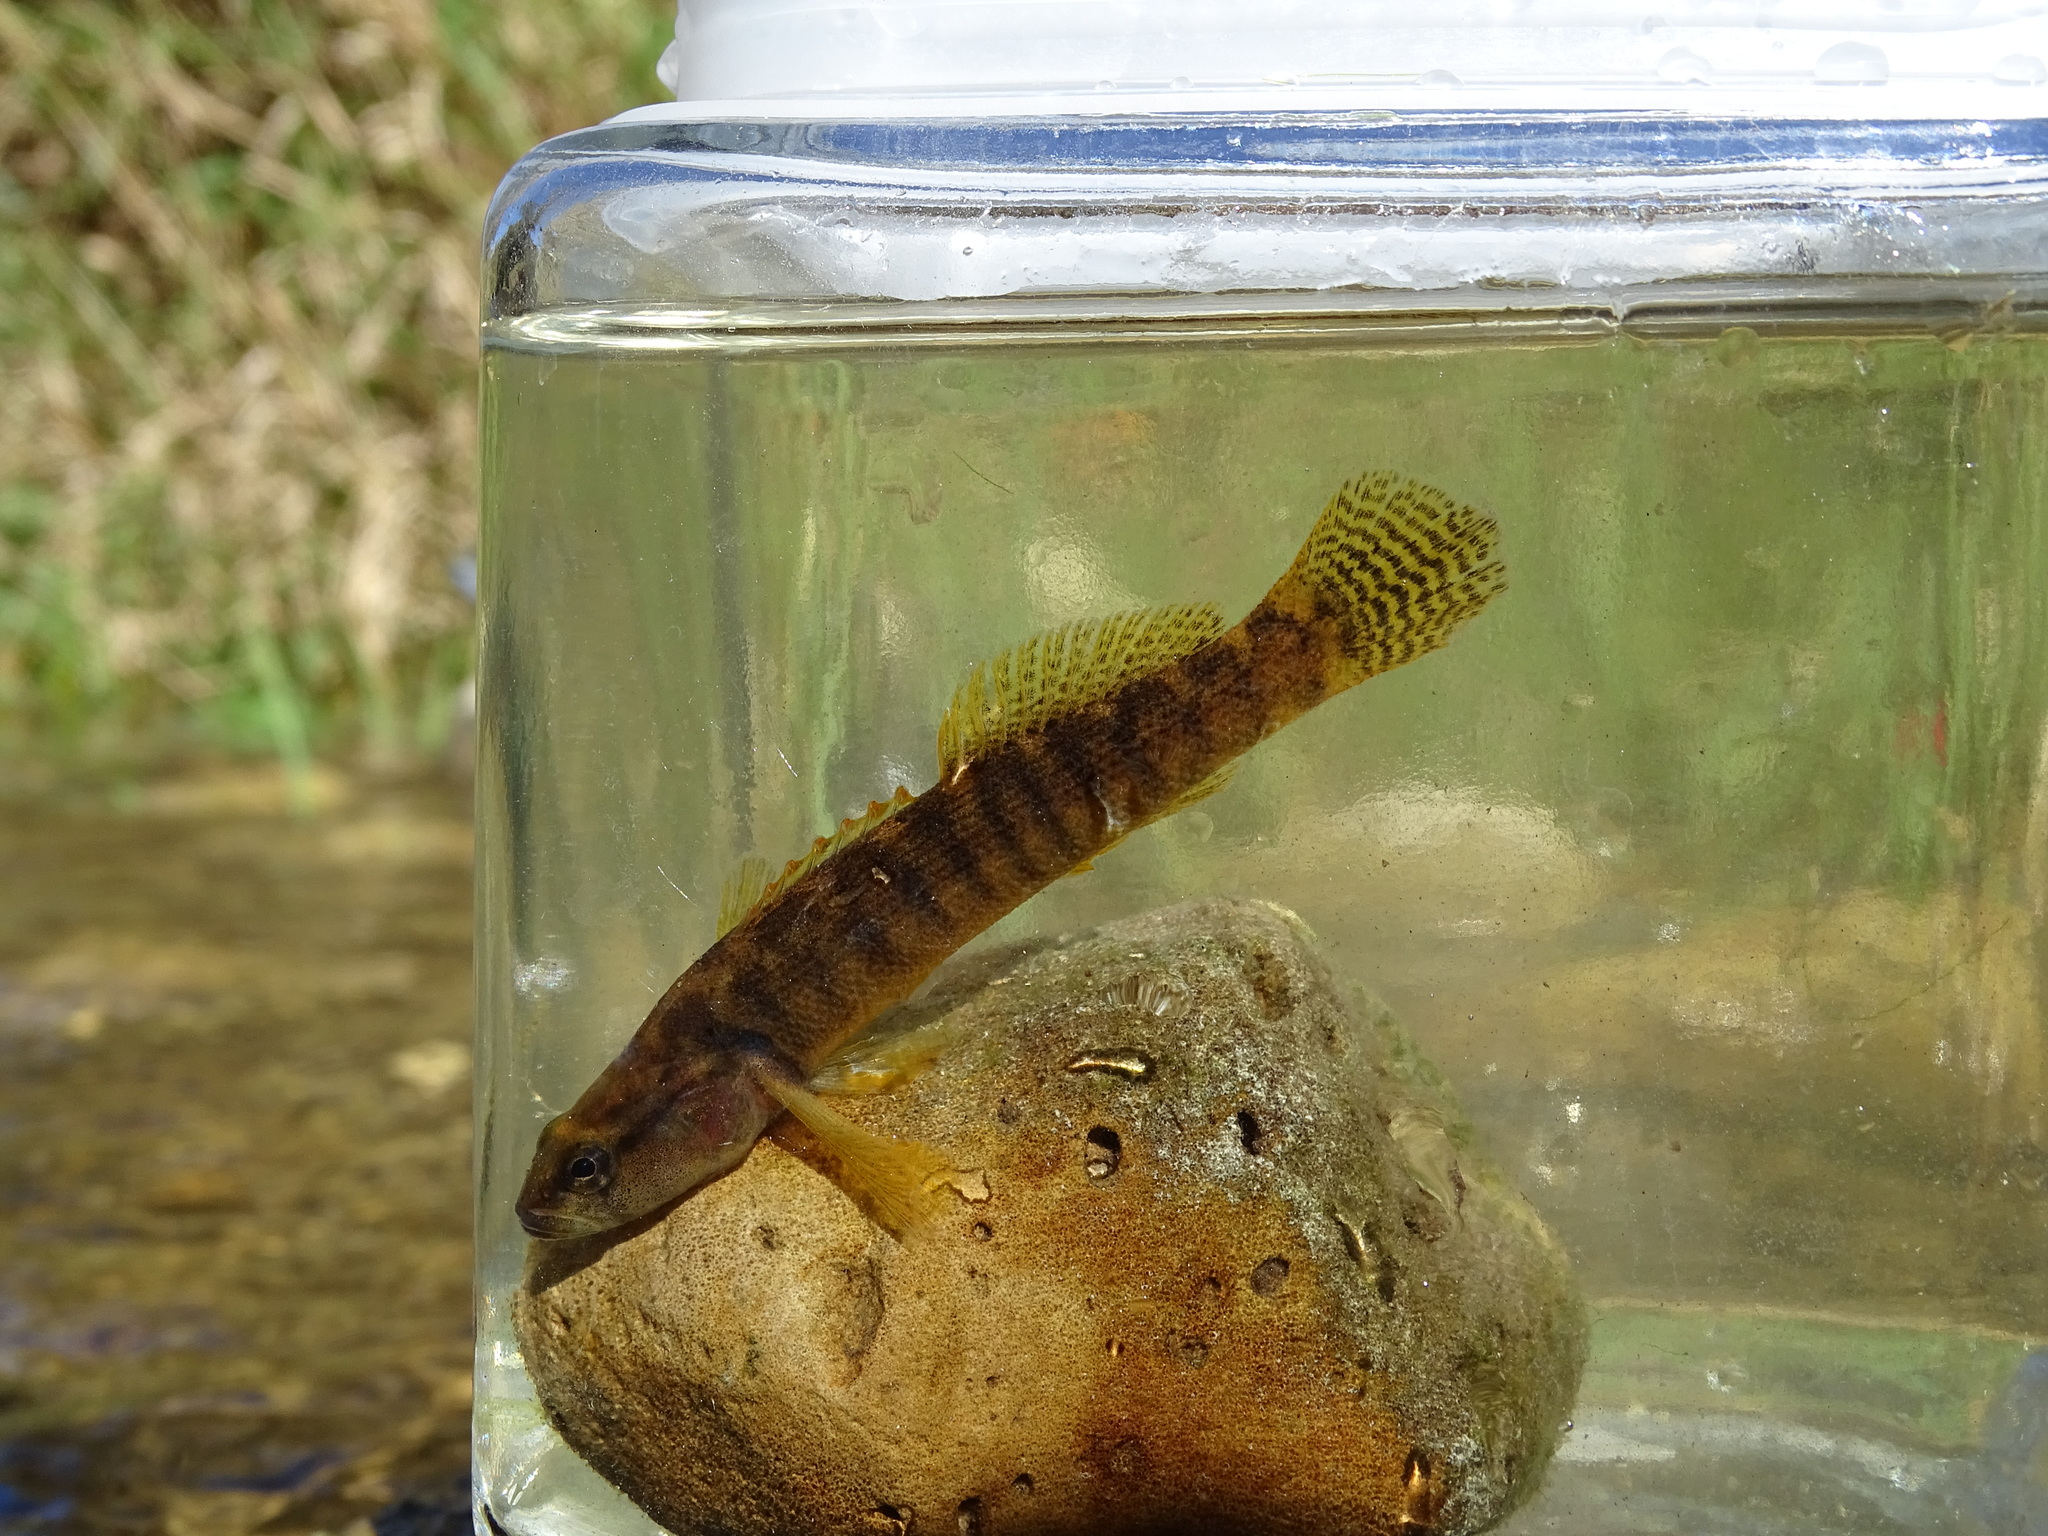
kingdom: Animalia
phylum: Chordata
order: Perciformes
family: Percidae
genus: Etheostoma
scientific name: Etheostoma flabellare
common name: Fantail darter
